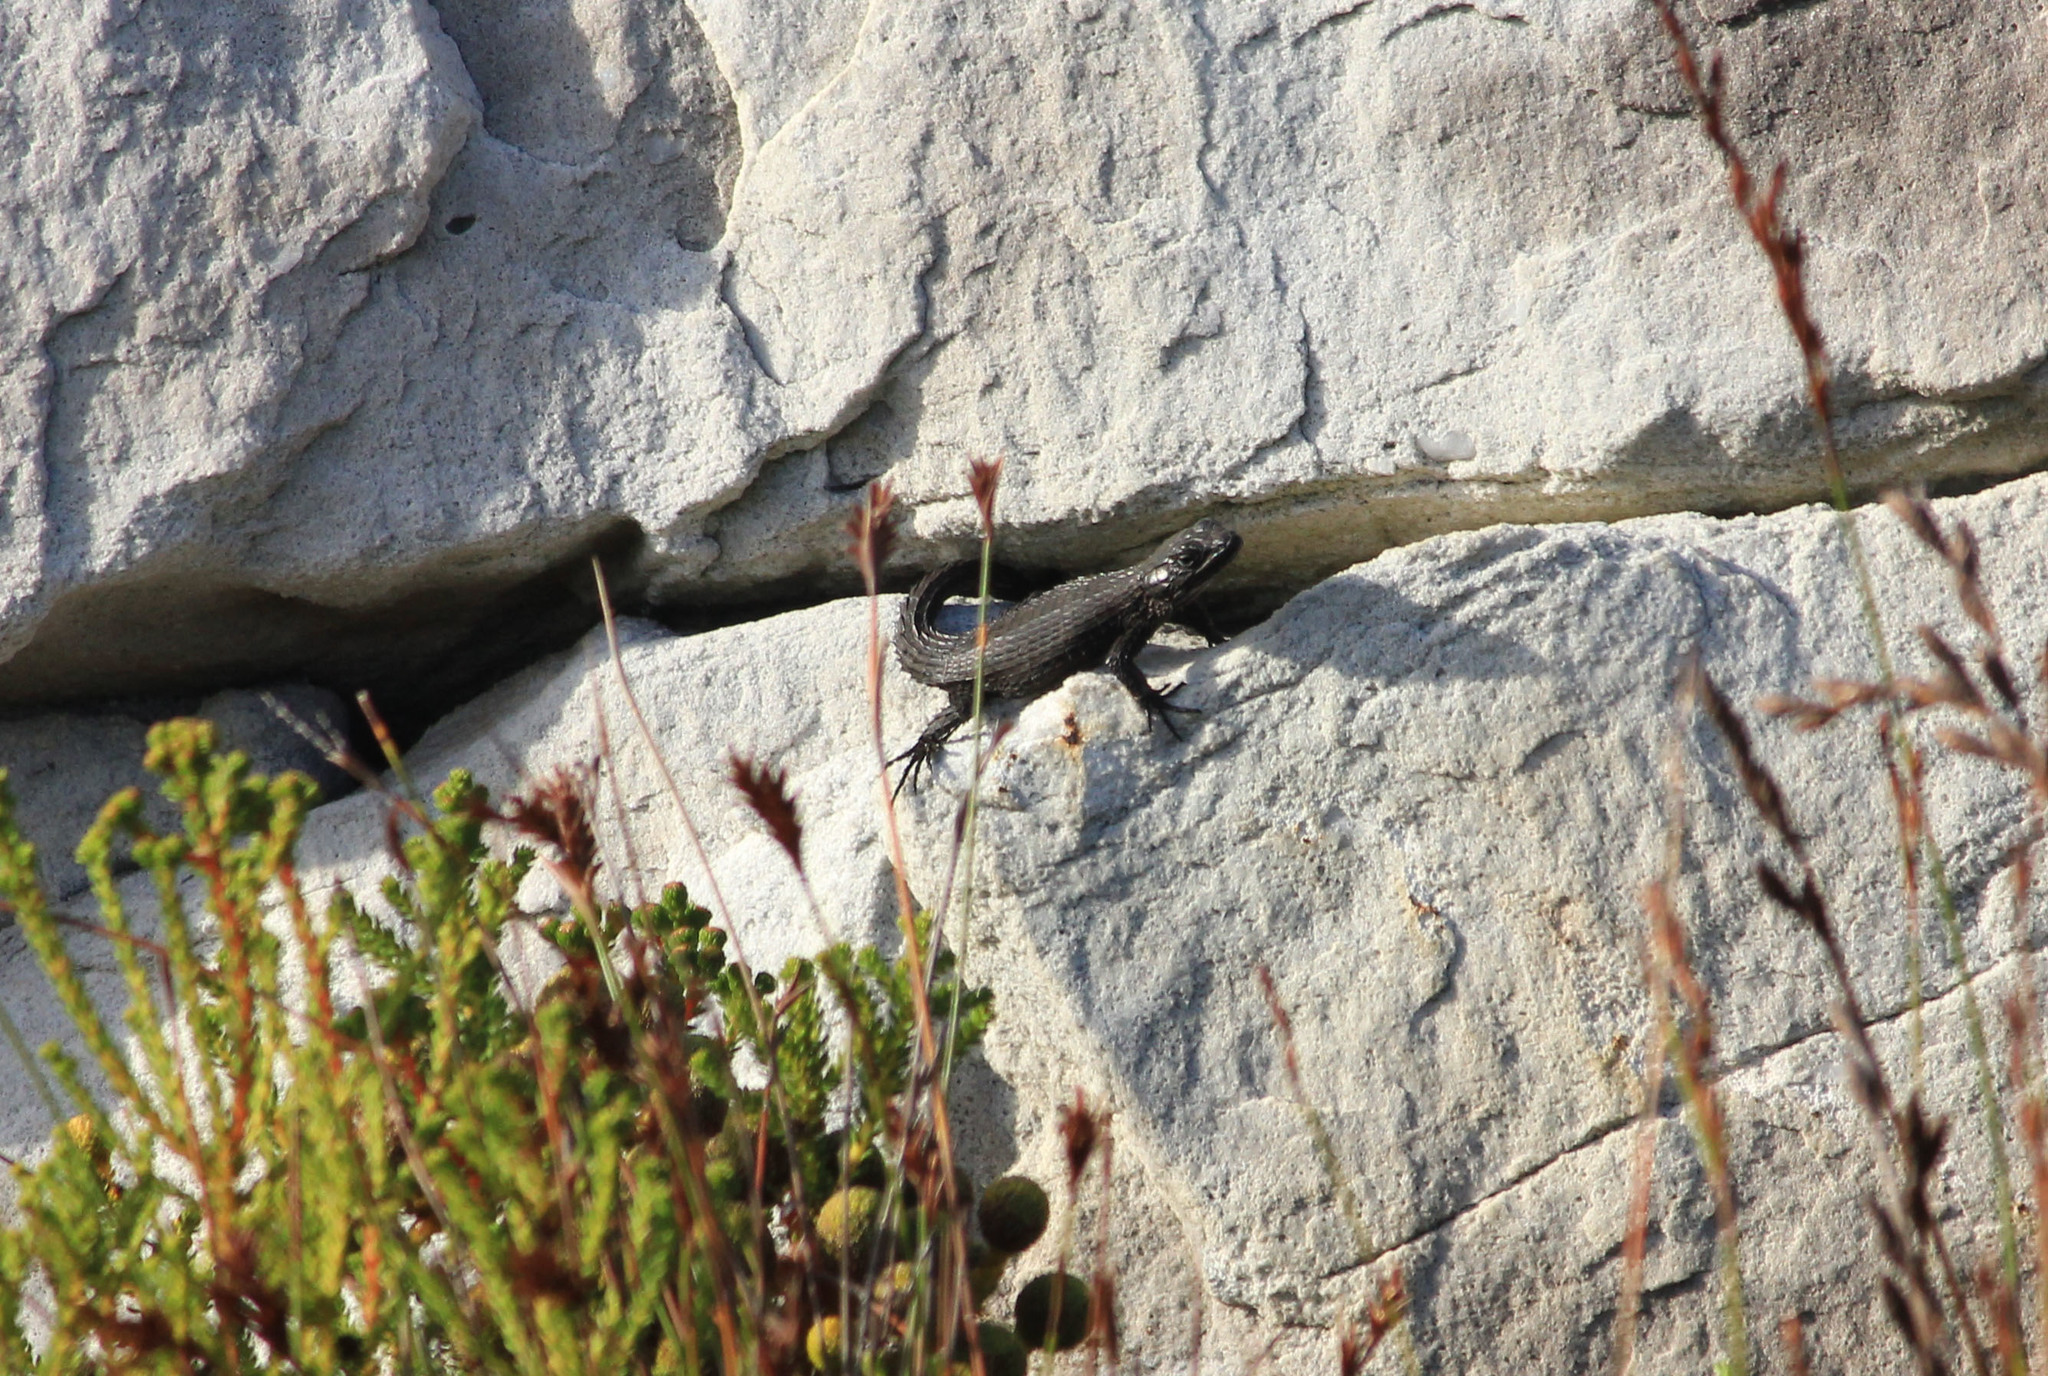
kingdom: Animalia
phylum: Chordata
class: Squamata
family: Cordylidae
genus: Cordylus
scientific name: Cordylus niger
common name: Black girdled lizard
